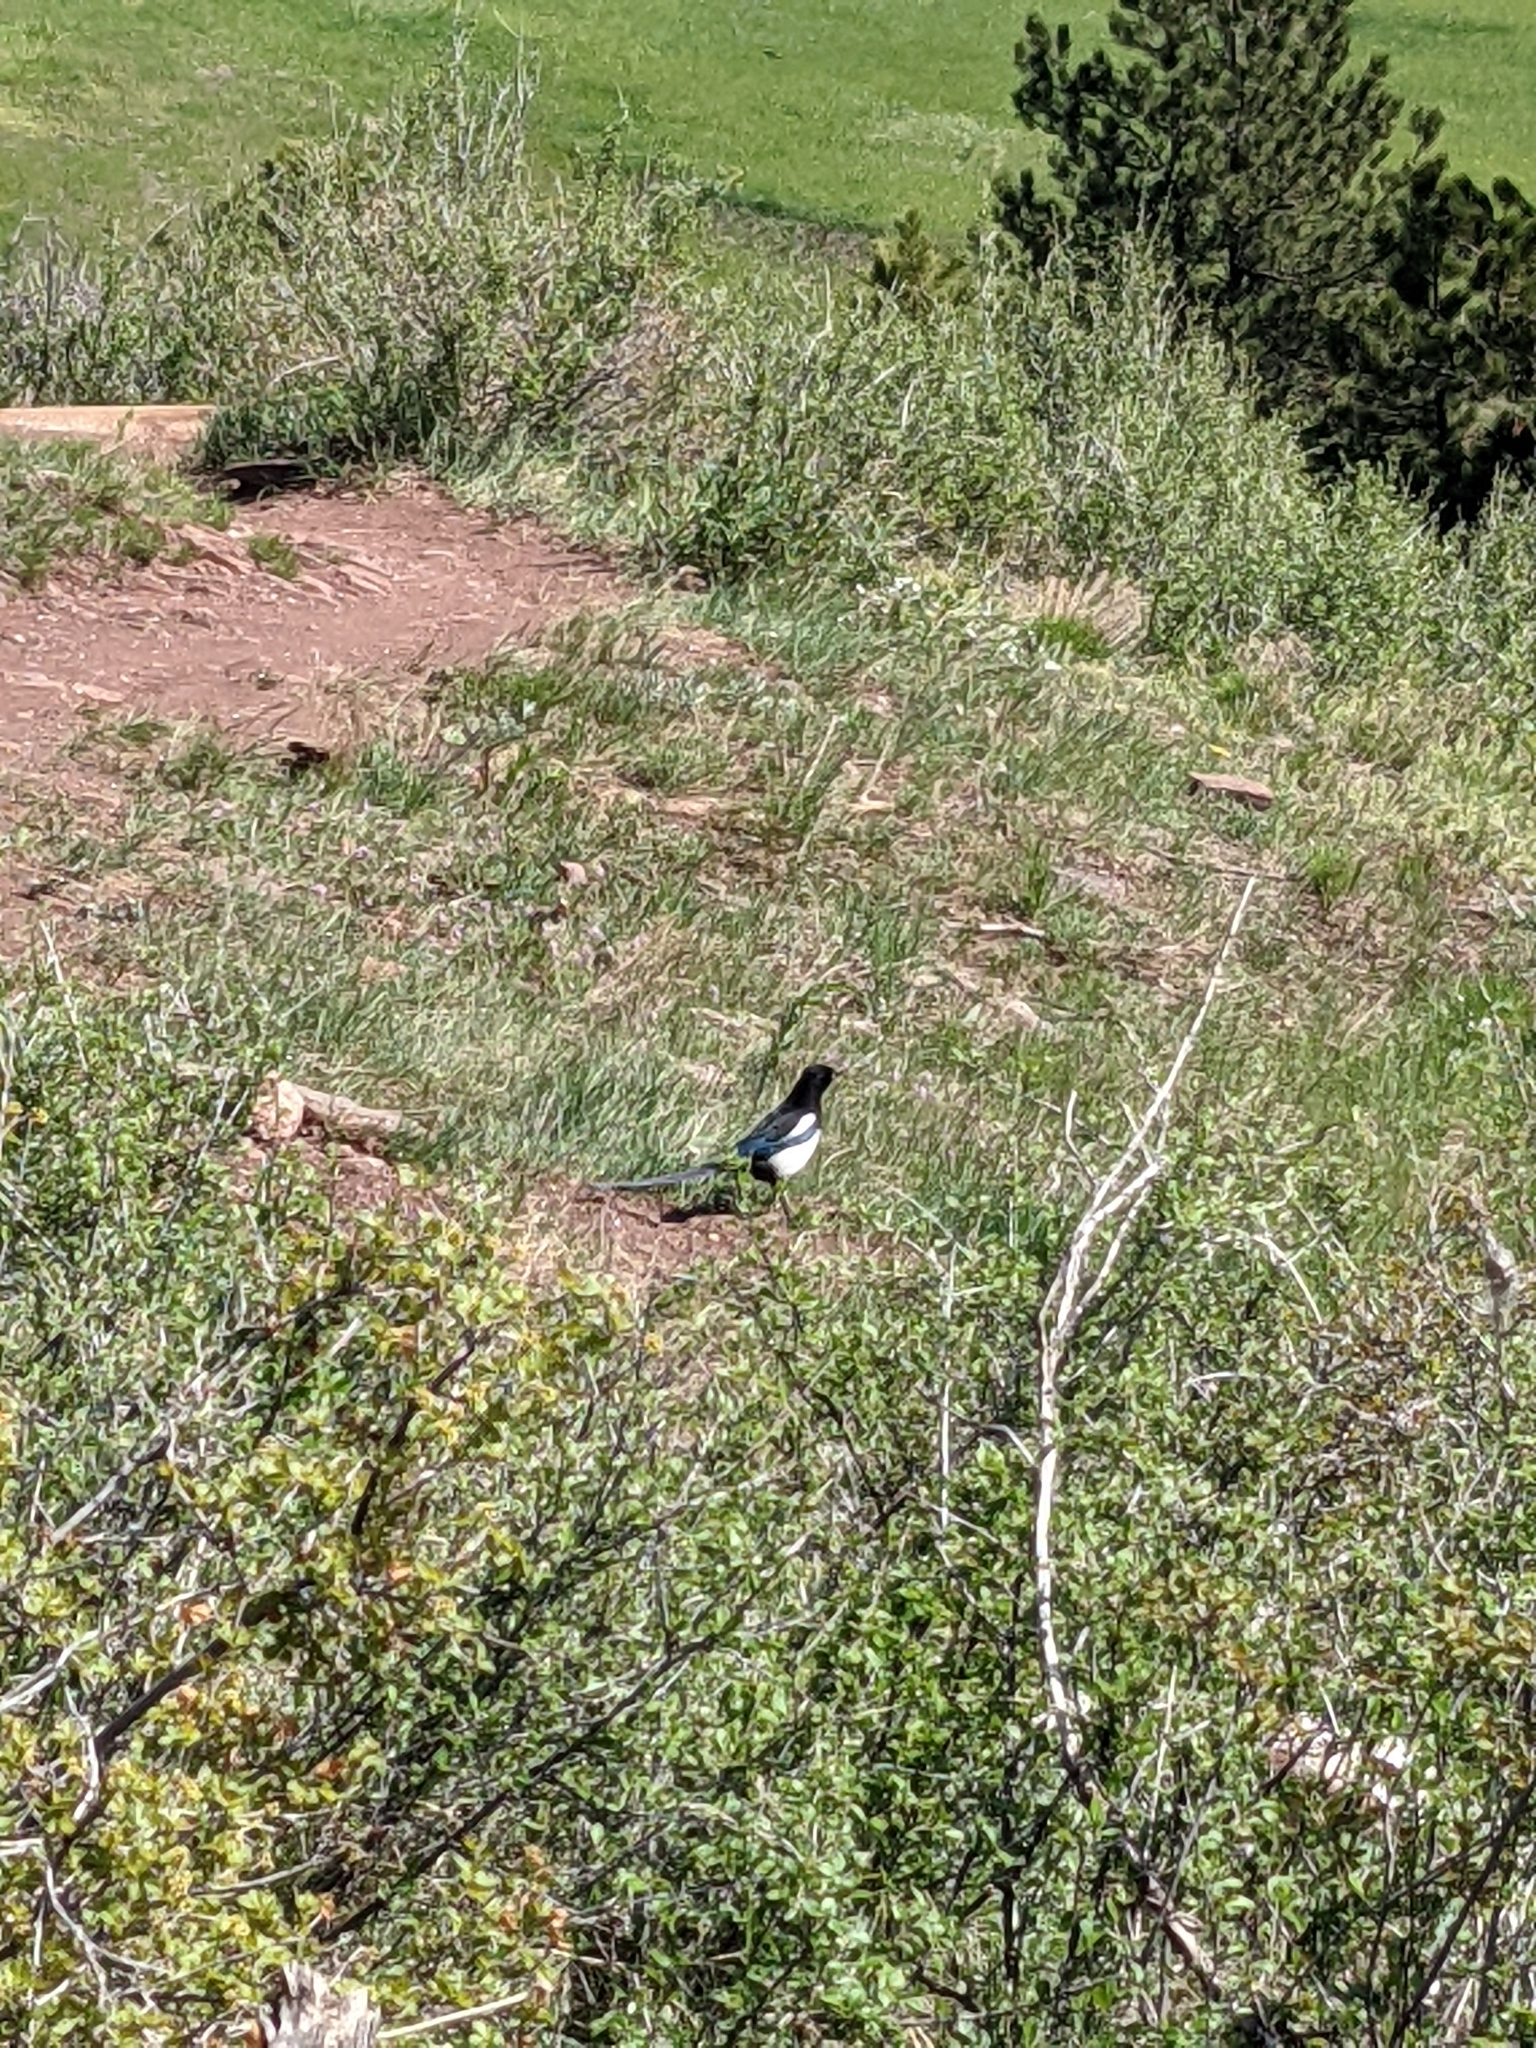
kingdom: Animalia
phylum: Chordata
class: Aves
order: Passeriformes
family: Corvidae
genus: Pica
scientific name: Pica hudsonia
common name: Black-billed magpie
